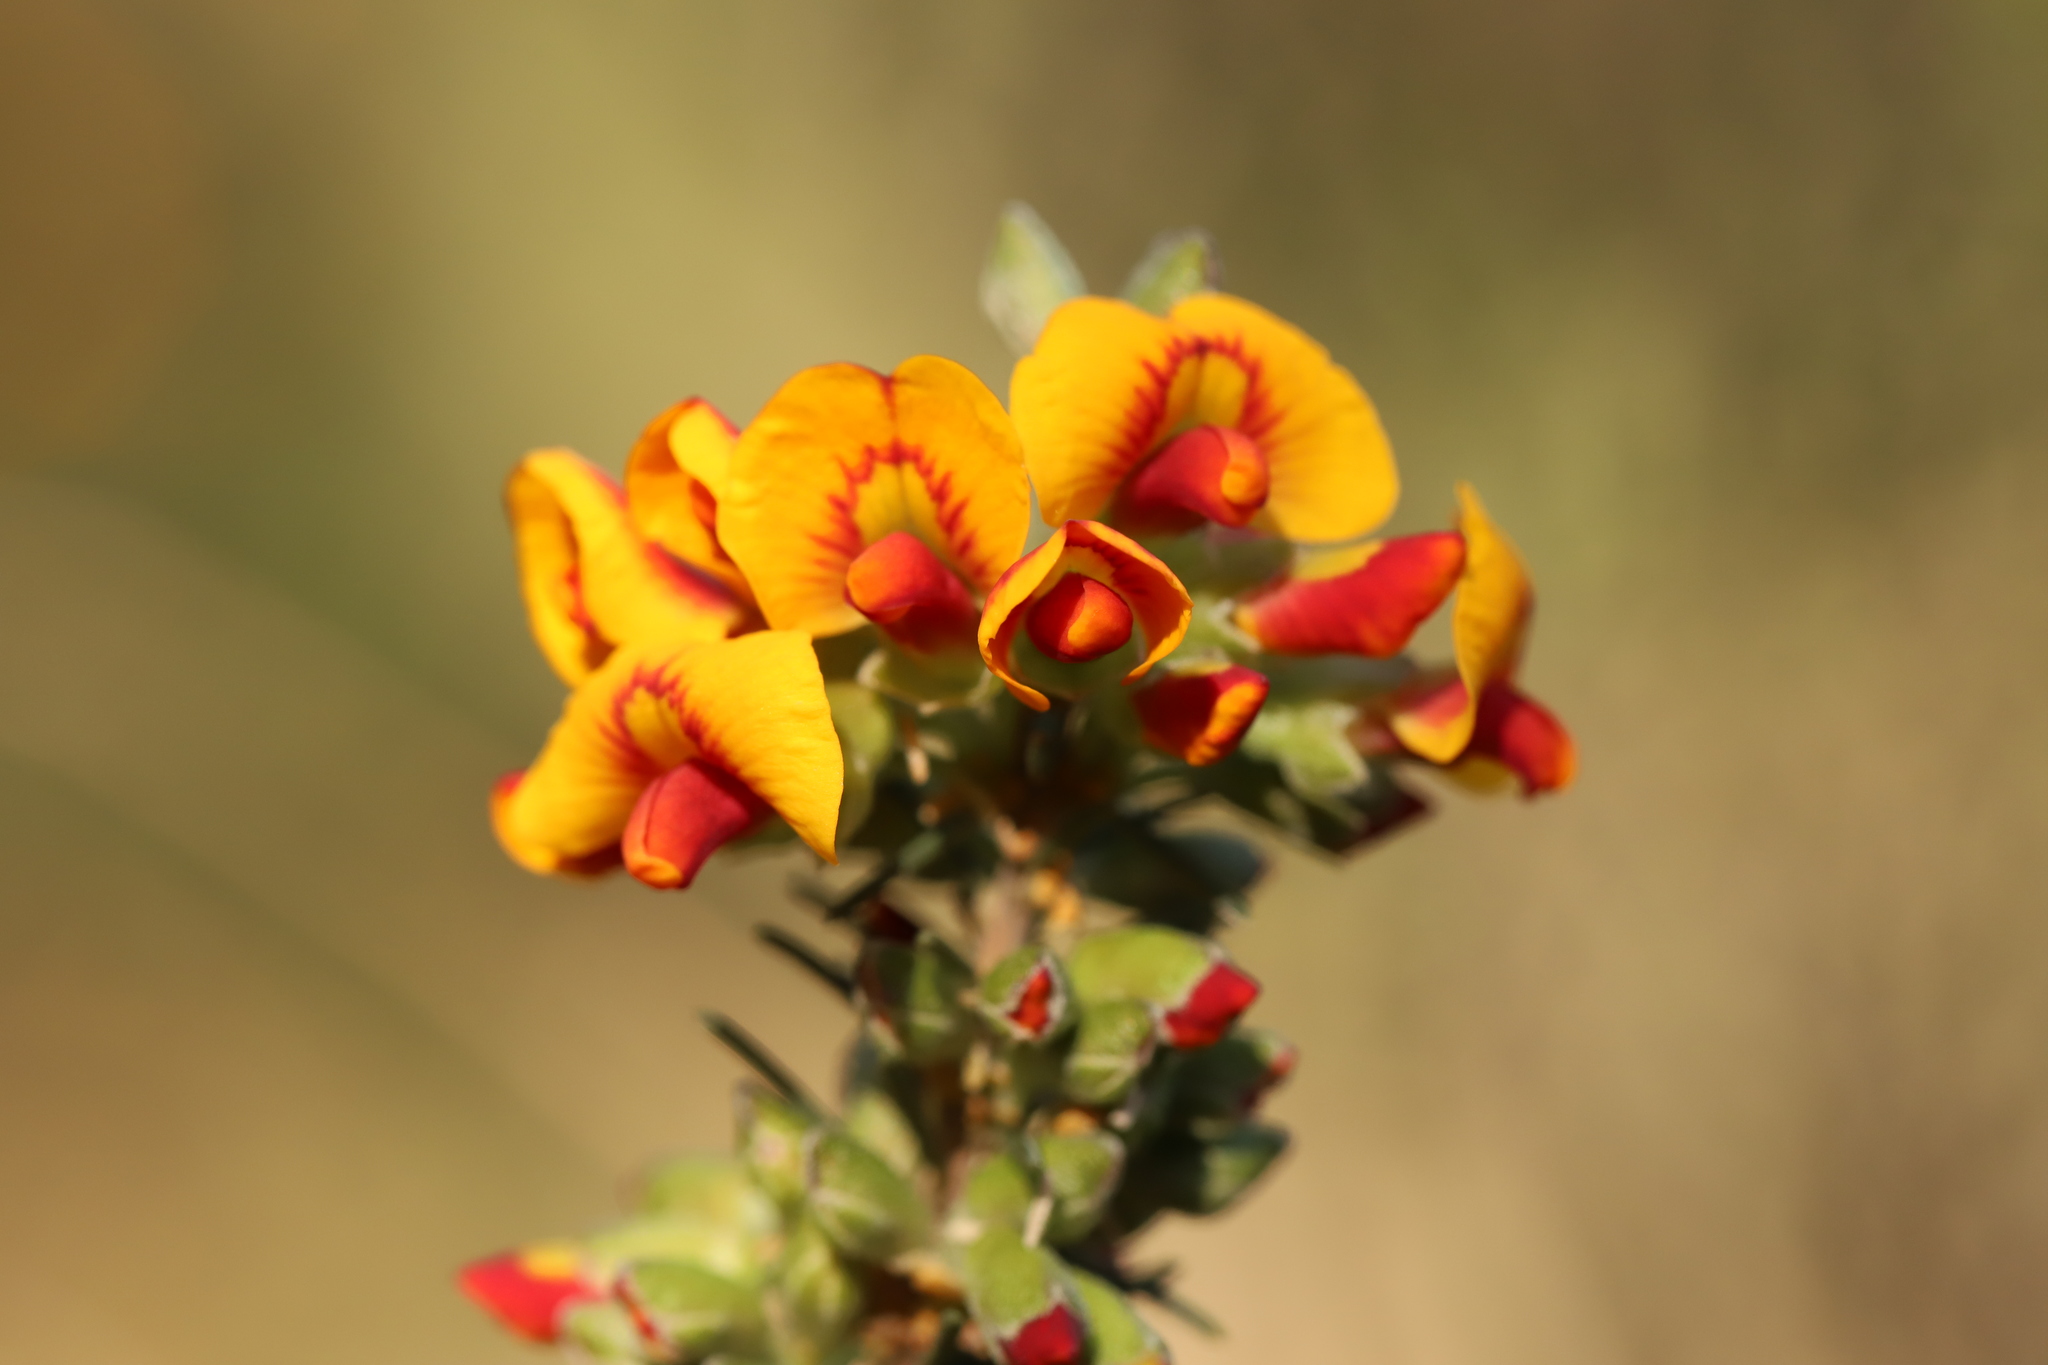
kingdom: Plantae
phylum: Tracheophyta
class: Magnoliopsida
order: Fabales
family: Fabaceae
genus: Dillwynia
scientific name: Dillwynia sericea
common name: Showy parrot-pea
